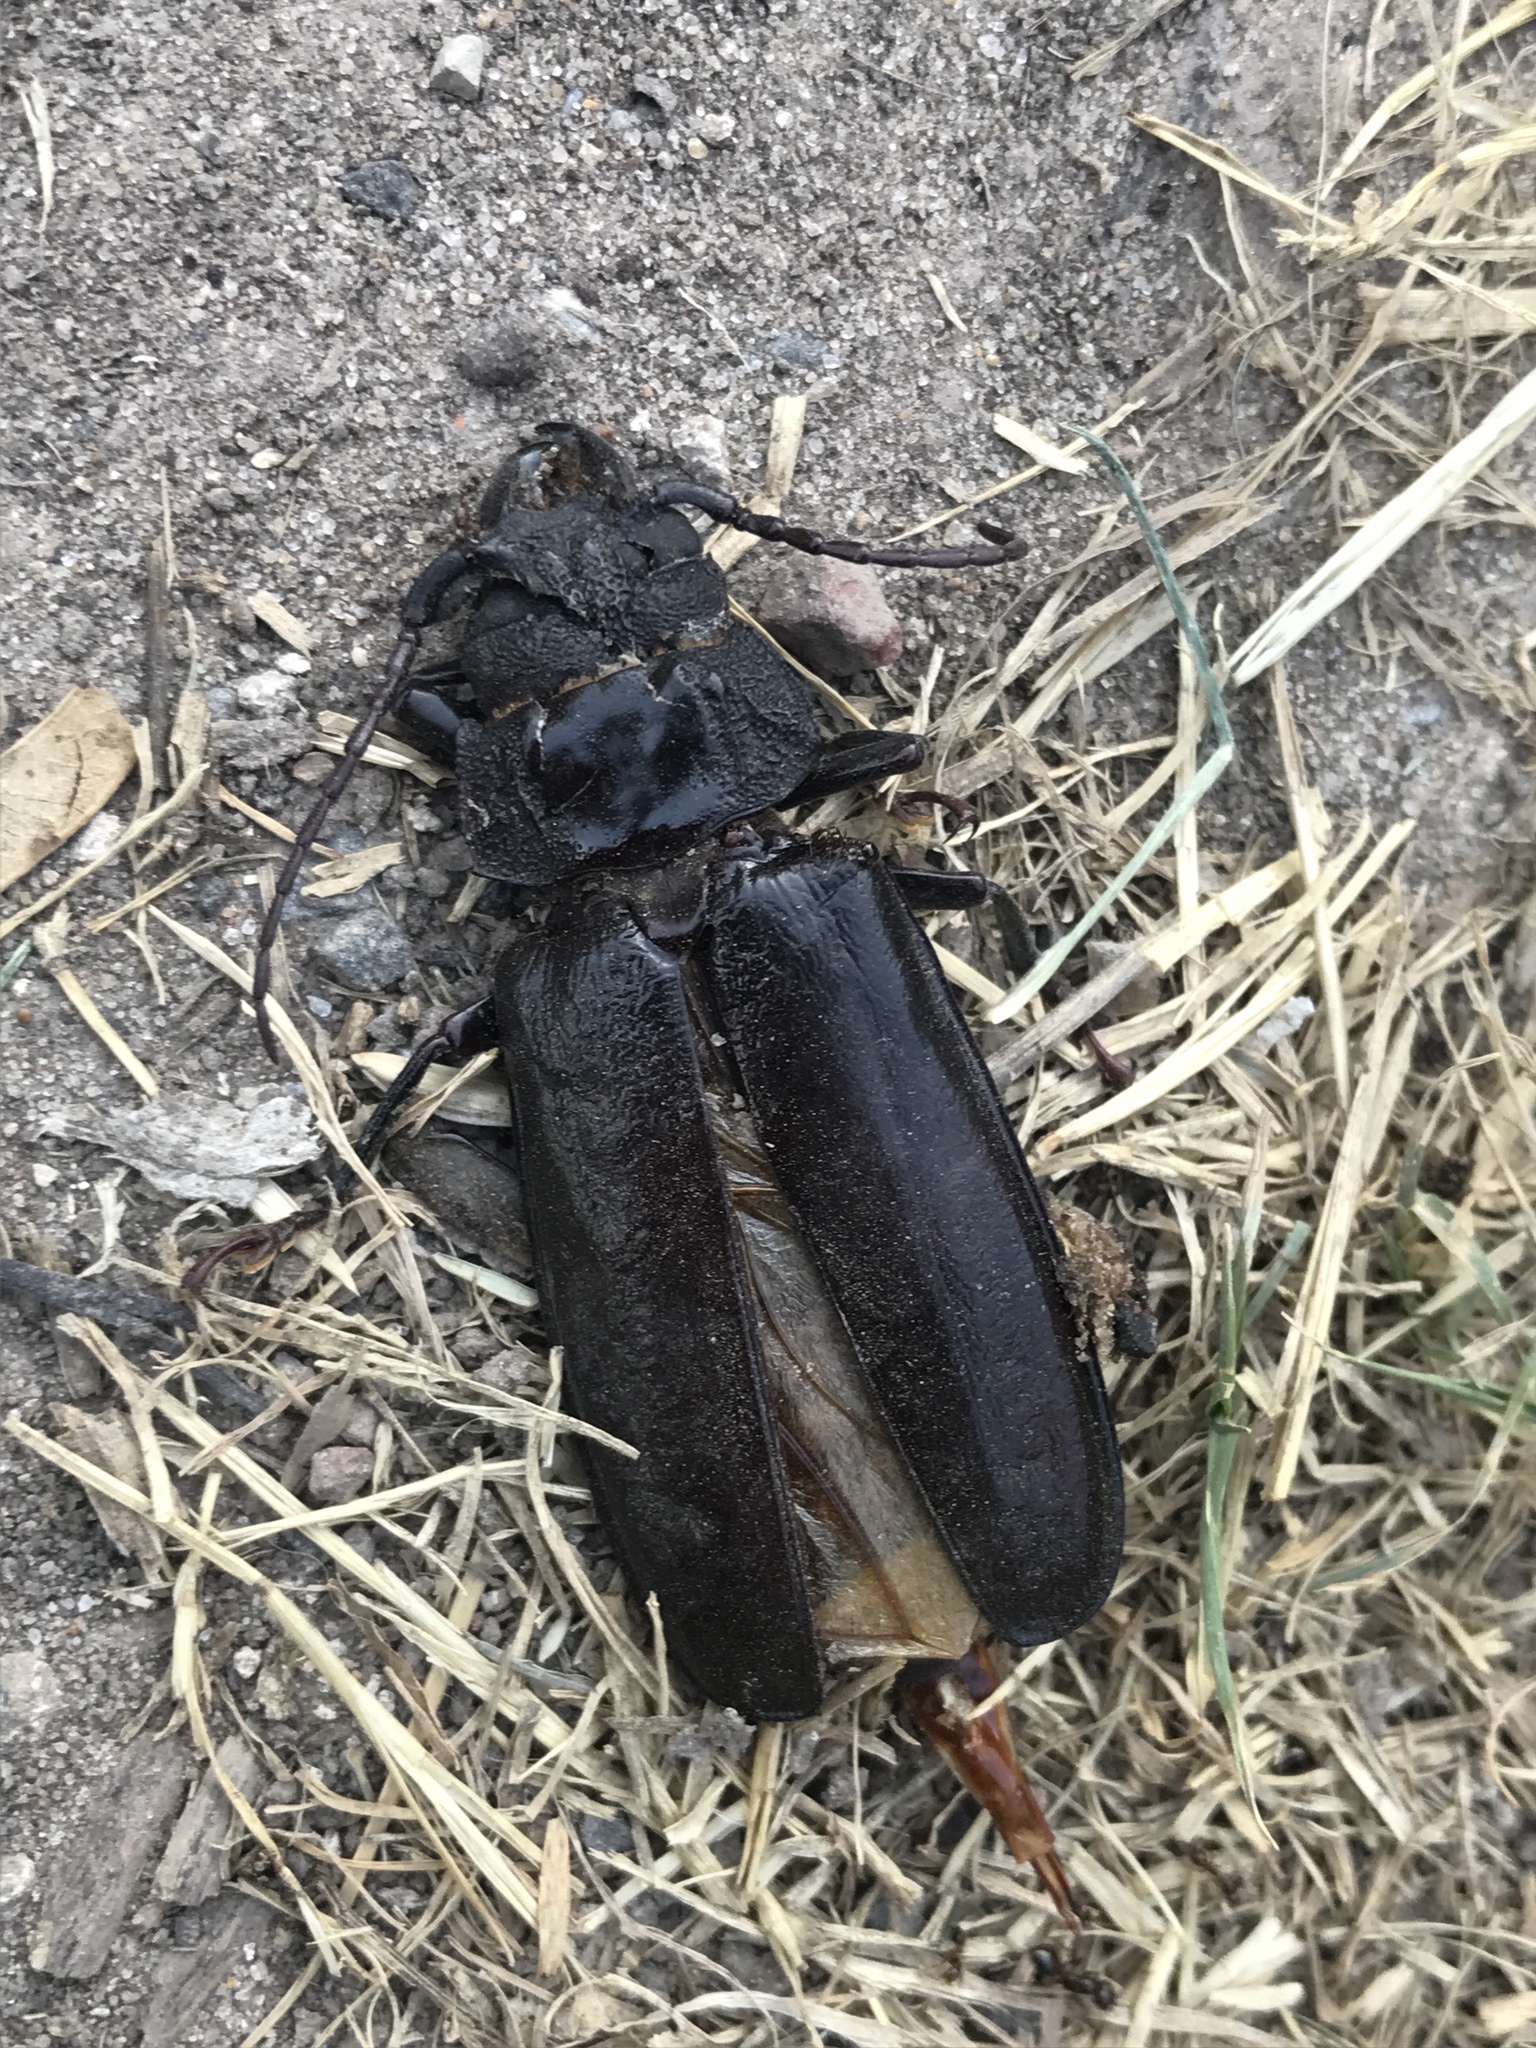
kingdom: Animalia
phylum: Arthropoda
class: Insecta
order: Coleoptera
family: Cerambycidae
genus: Mallodon
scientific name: Mallodon dasystomum
